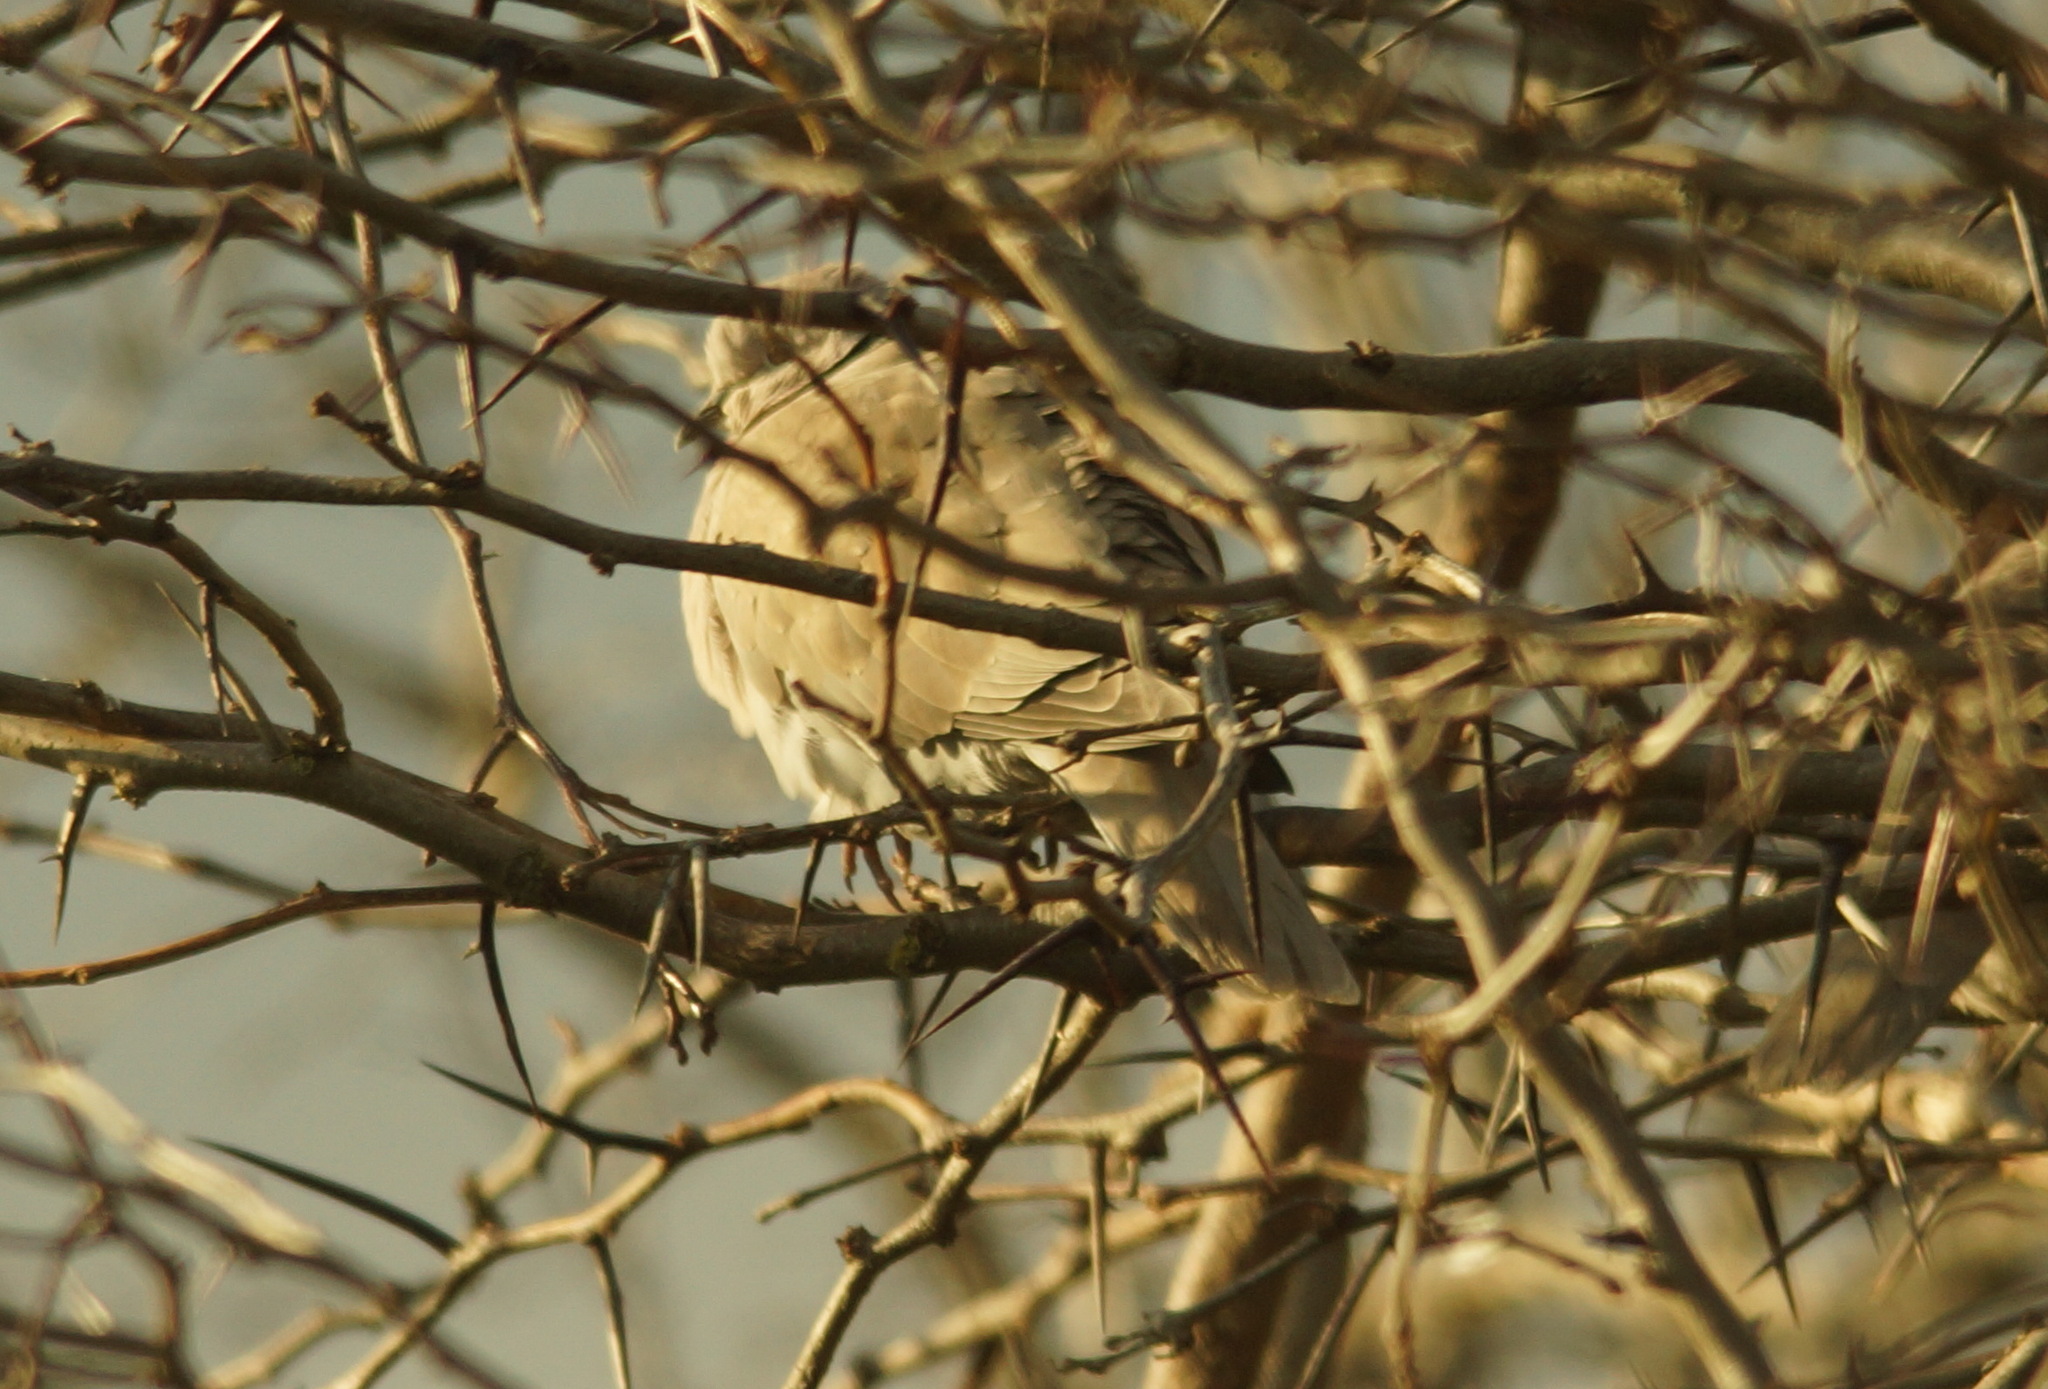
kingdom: Animalia
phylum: Chordata
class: Aves
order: Columbiformes
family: Columbidae
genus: Streptopelia
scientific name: Streptopelia decaocto
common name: Eurasian collared dove
